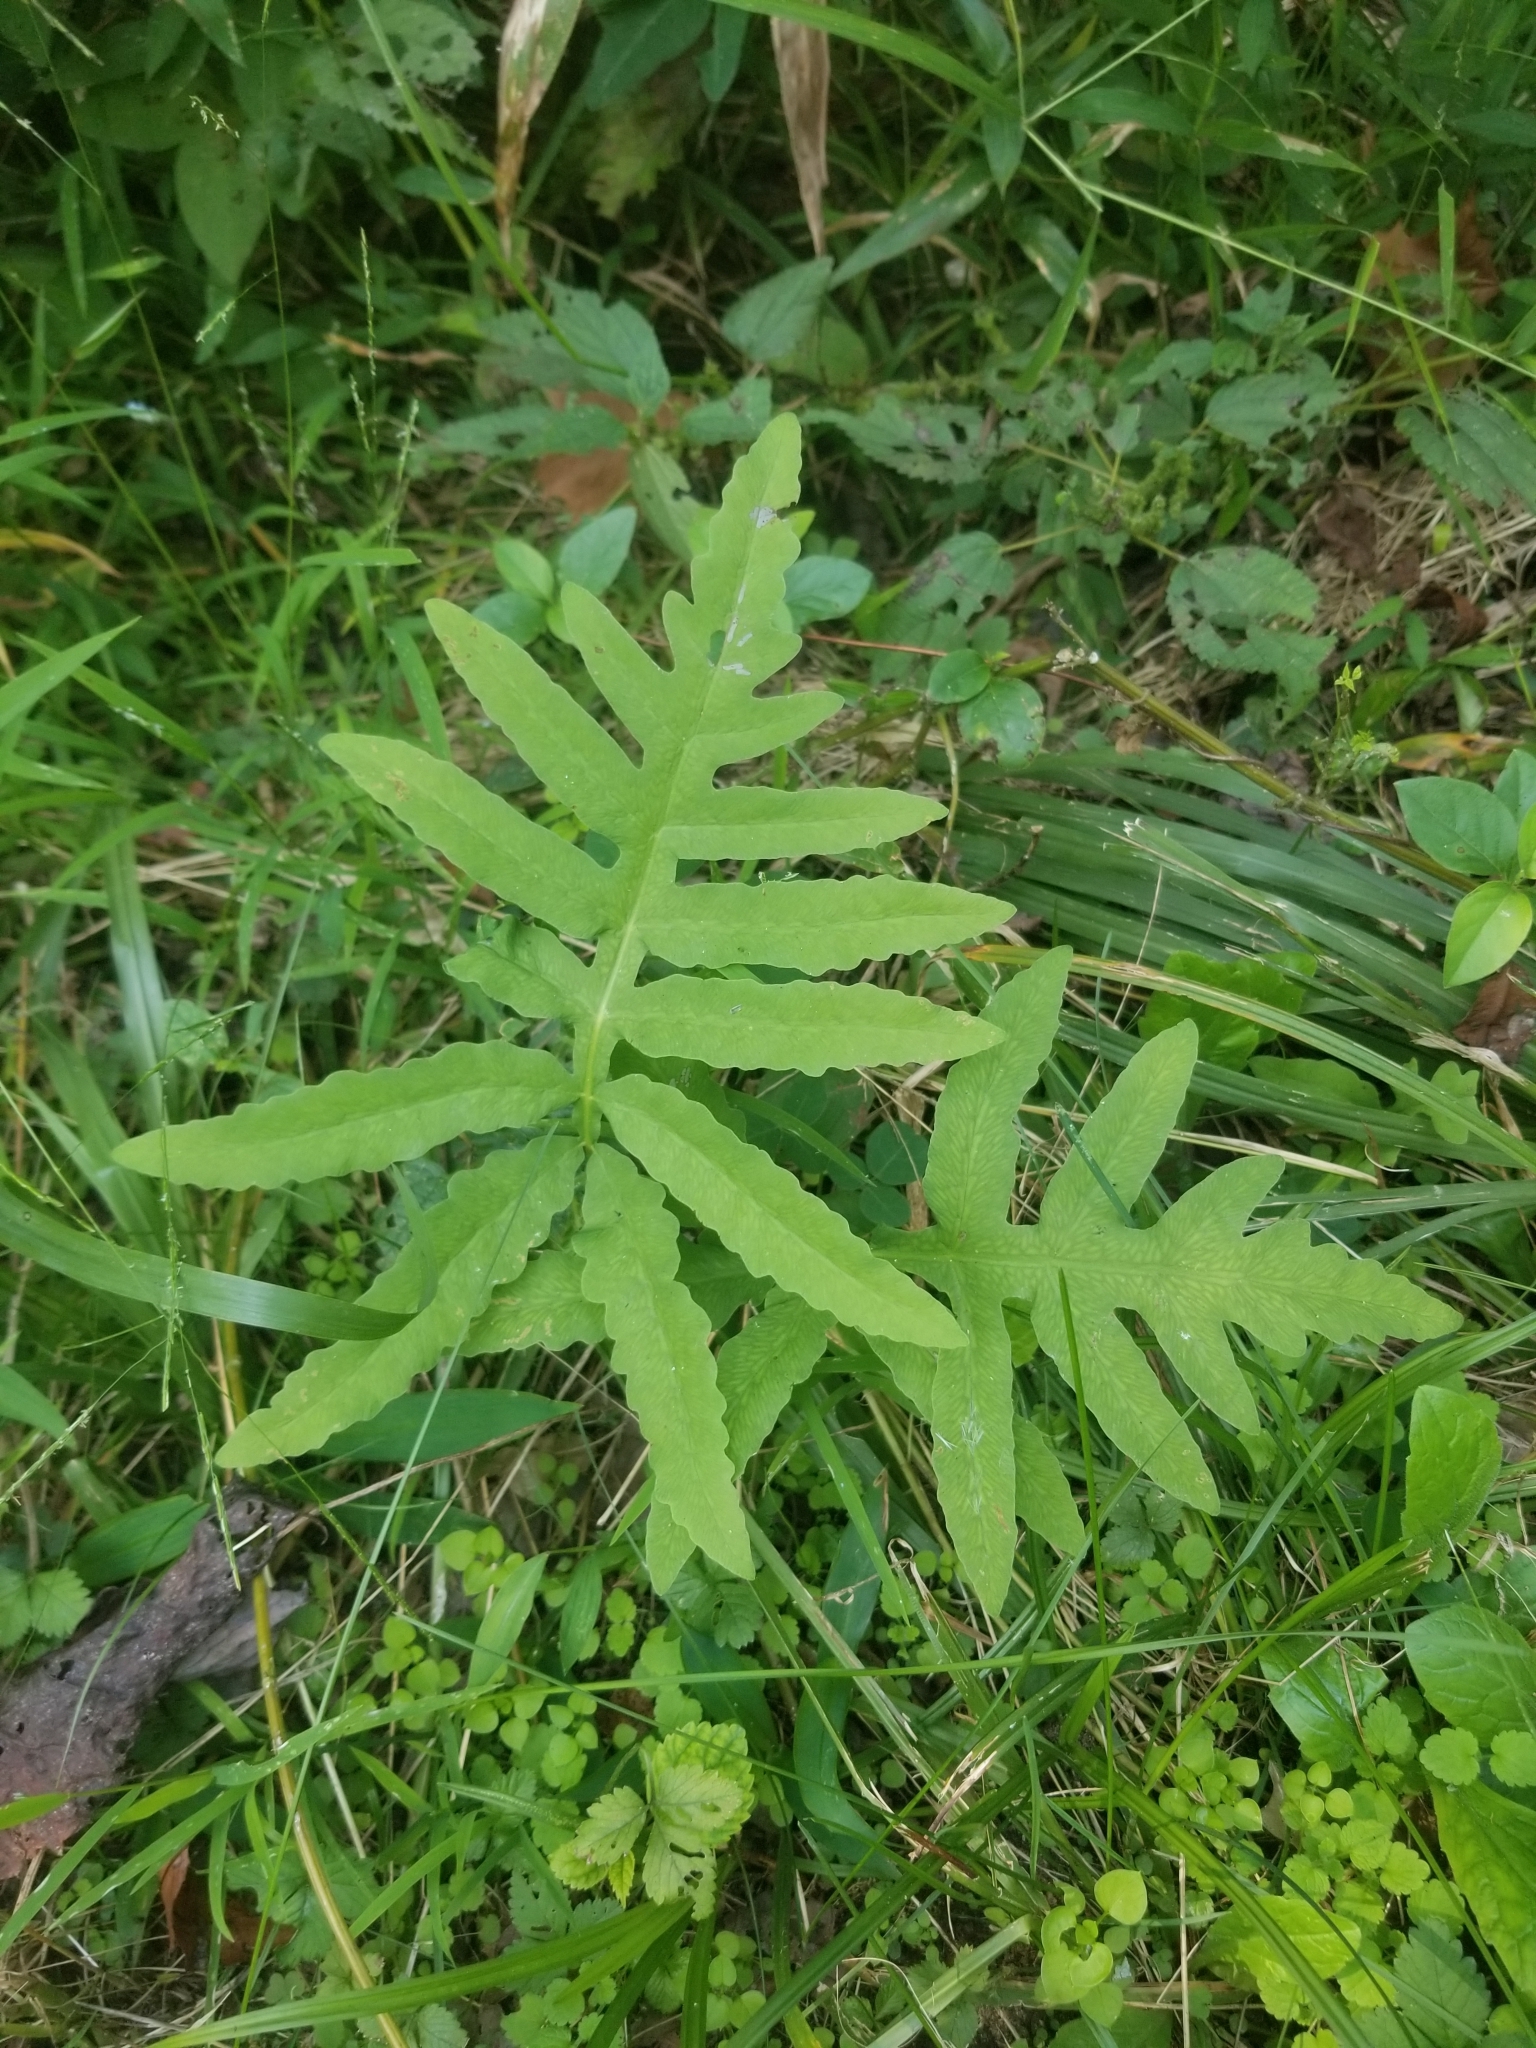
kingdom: Plantae
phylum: Tracheophyta
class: Polypodiopsida
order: Polypodiales
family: Onocleaceae
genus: Onoclea
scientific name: Onoclea sensibilis
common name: Sensitive fern
